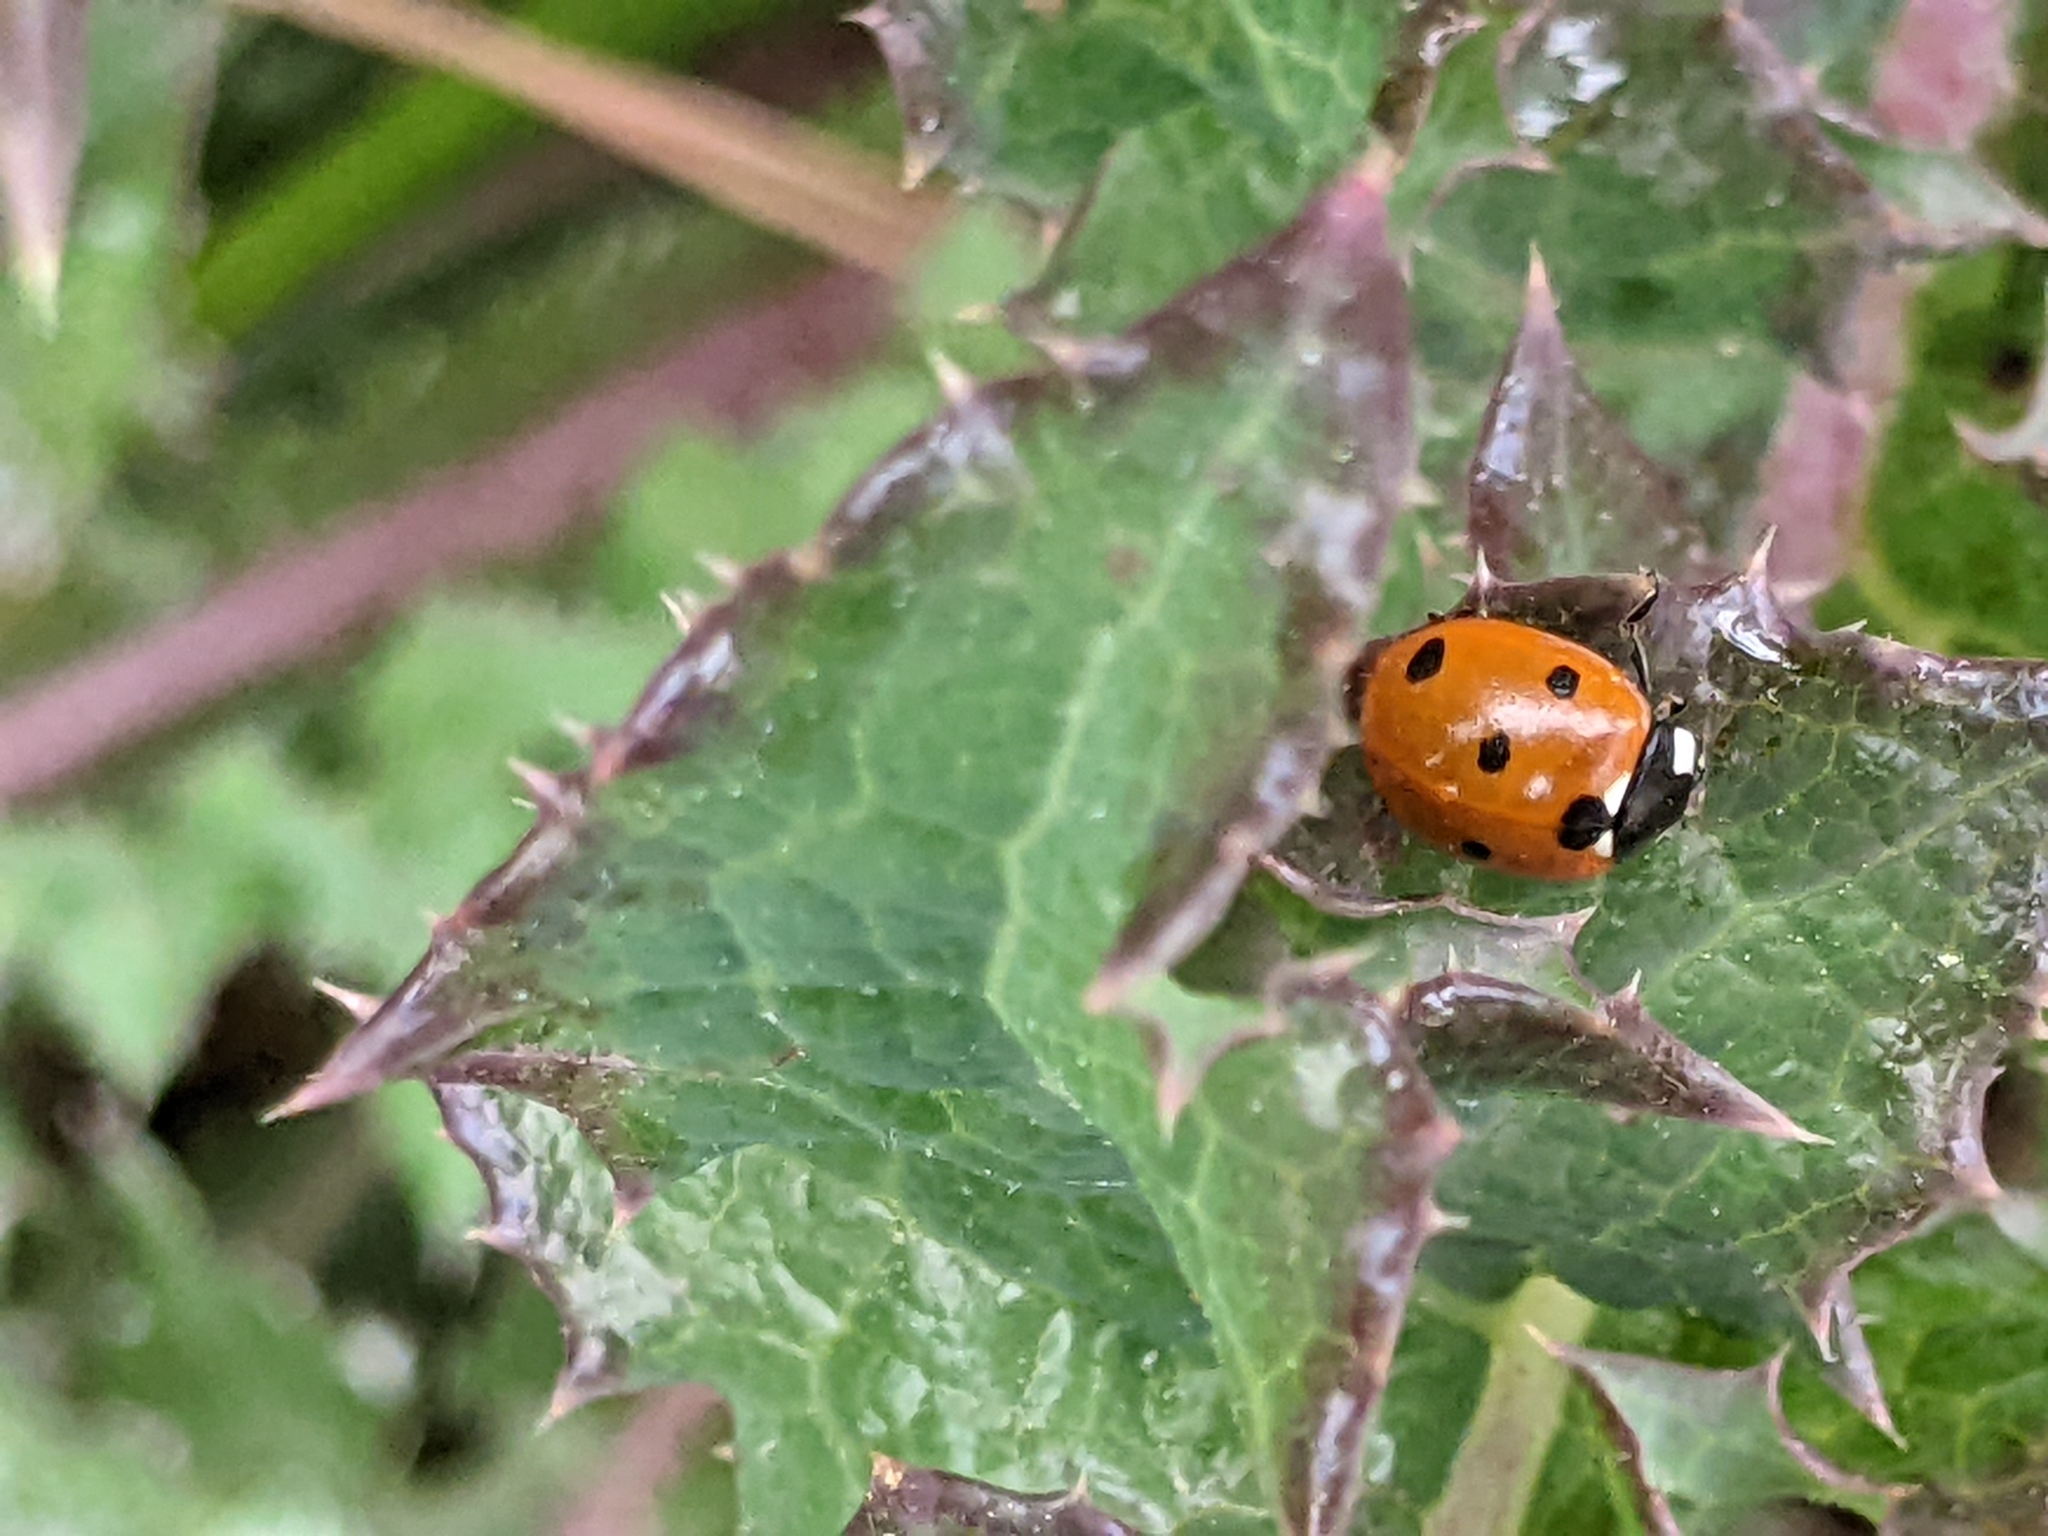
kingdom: Animalia
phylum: Arthropoda
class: Insecta
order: Coleoptera
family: Coccinellidae
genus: Coccinella
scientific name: Coccinella septempunctata
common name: Sevenspotted lady beetle
